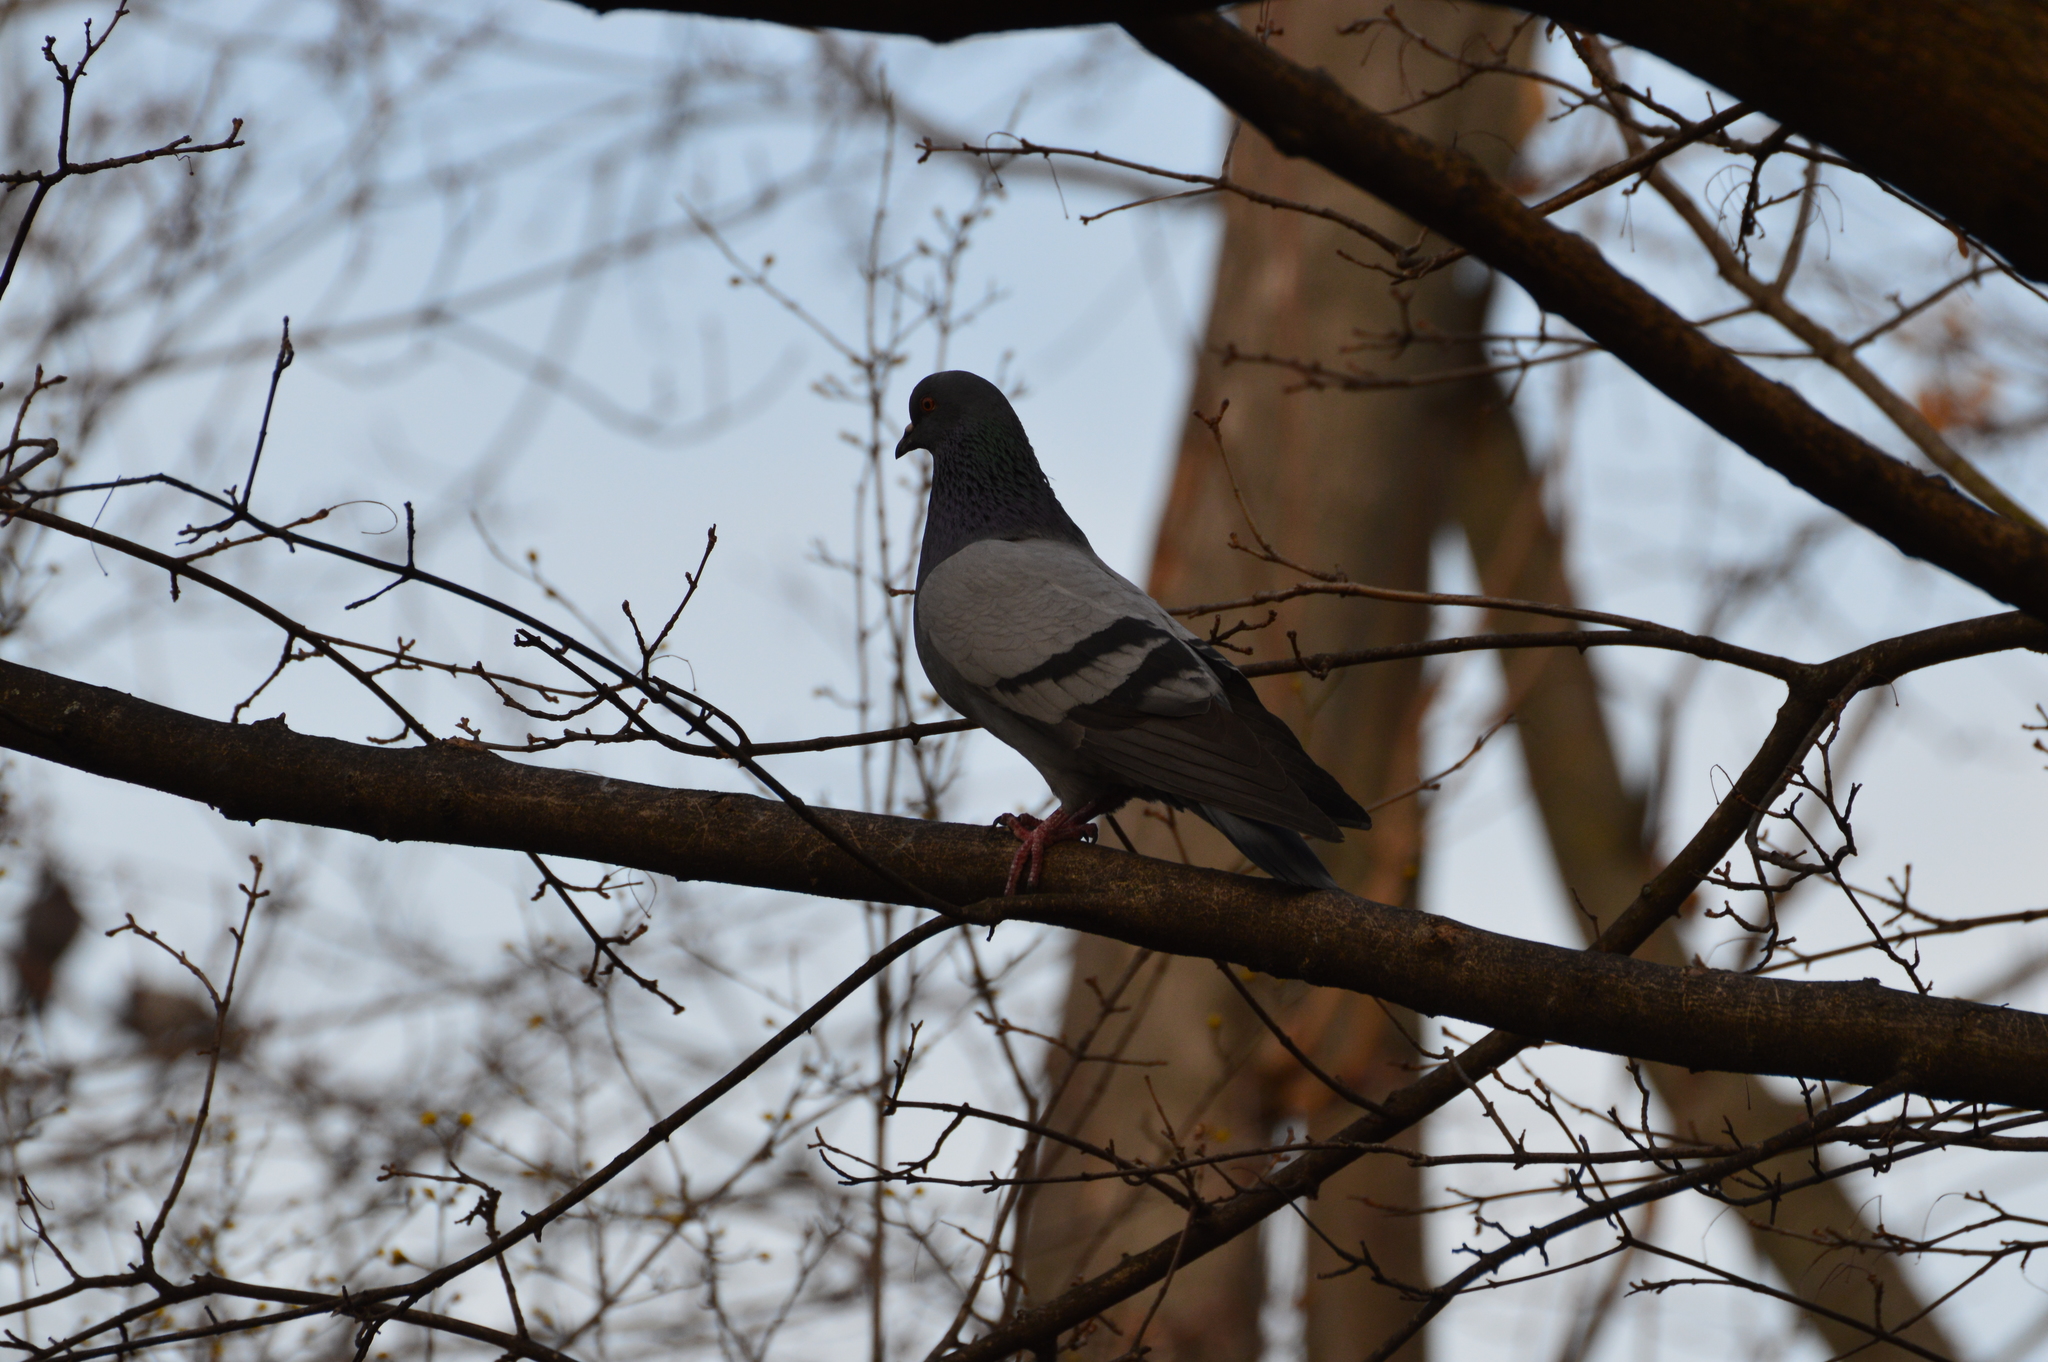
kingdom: Animalia
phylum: Chordata
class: Aves
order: Columbiformes
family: Columbidae
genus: Columba
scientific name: Columba livia
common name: Rock pigeon
